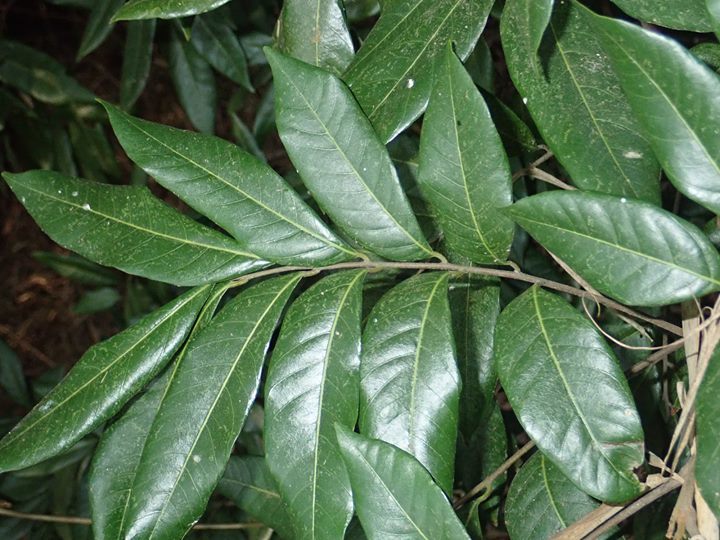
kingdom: Plantae
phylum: Tracheophyta
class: Magnoliopsida
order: Sapindales
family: Sapindaceae
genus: Dimocarpus
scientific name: Dimocarpus longan
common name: Longan
